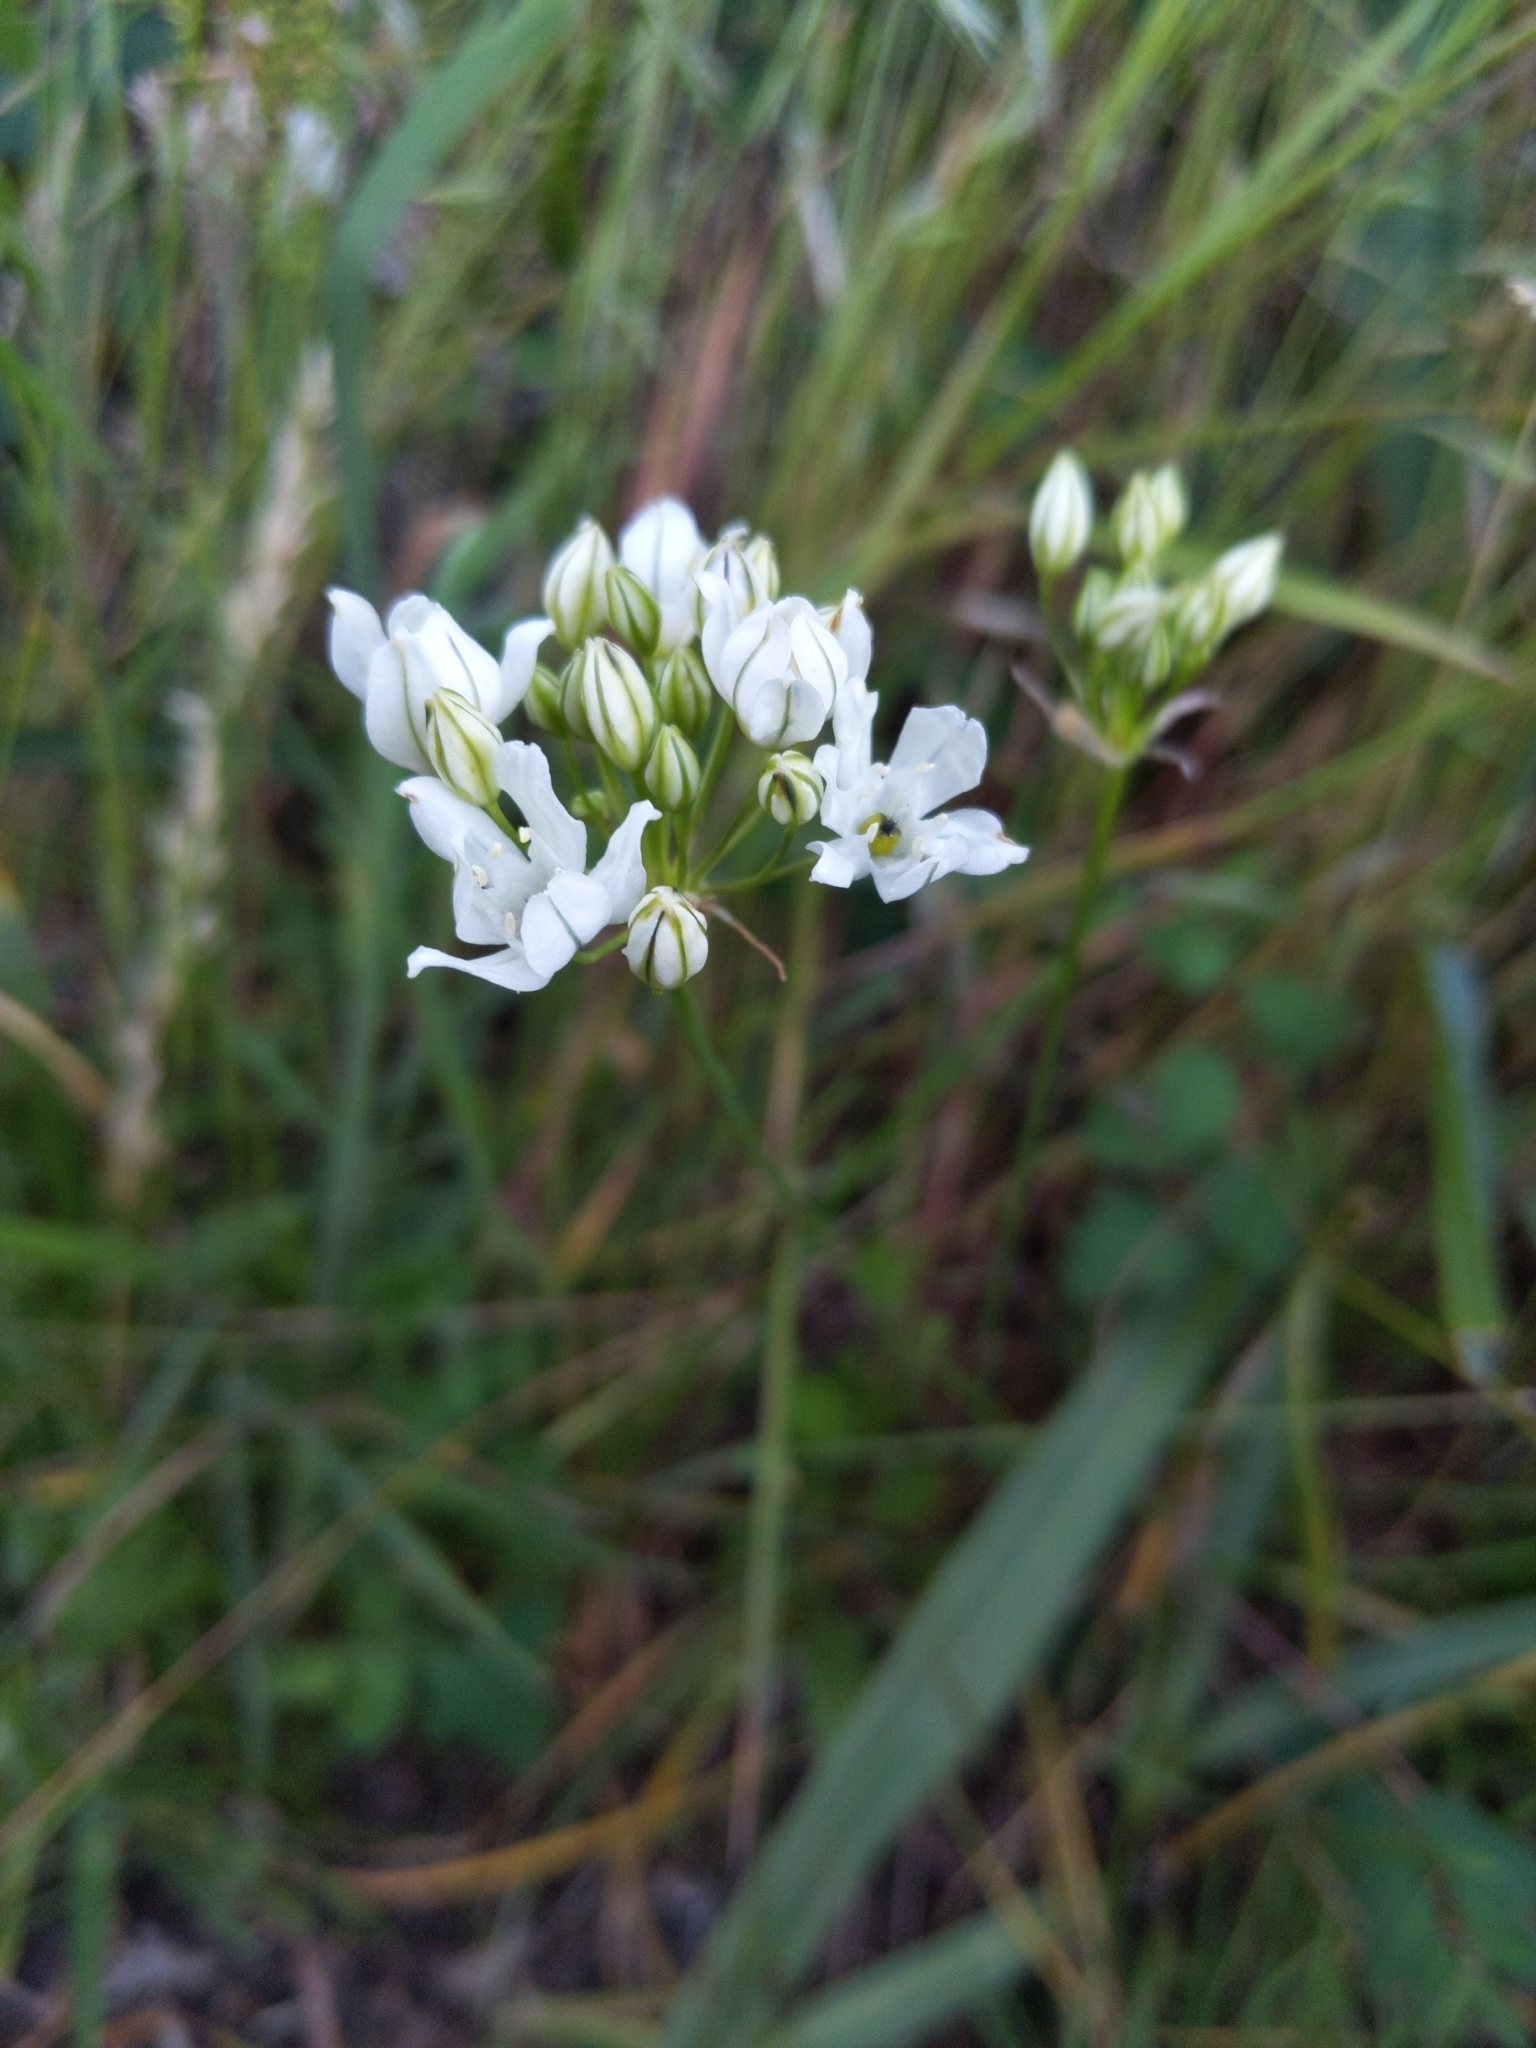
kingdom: Plantae
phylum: Tracheophyta
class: Liliopsida
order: Asparagales
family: Asparagaceae
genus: Triteleia
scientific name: Triteleia hyacinthina
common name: White brodiaea
